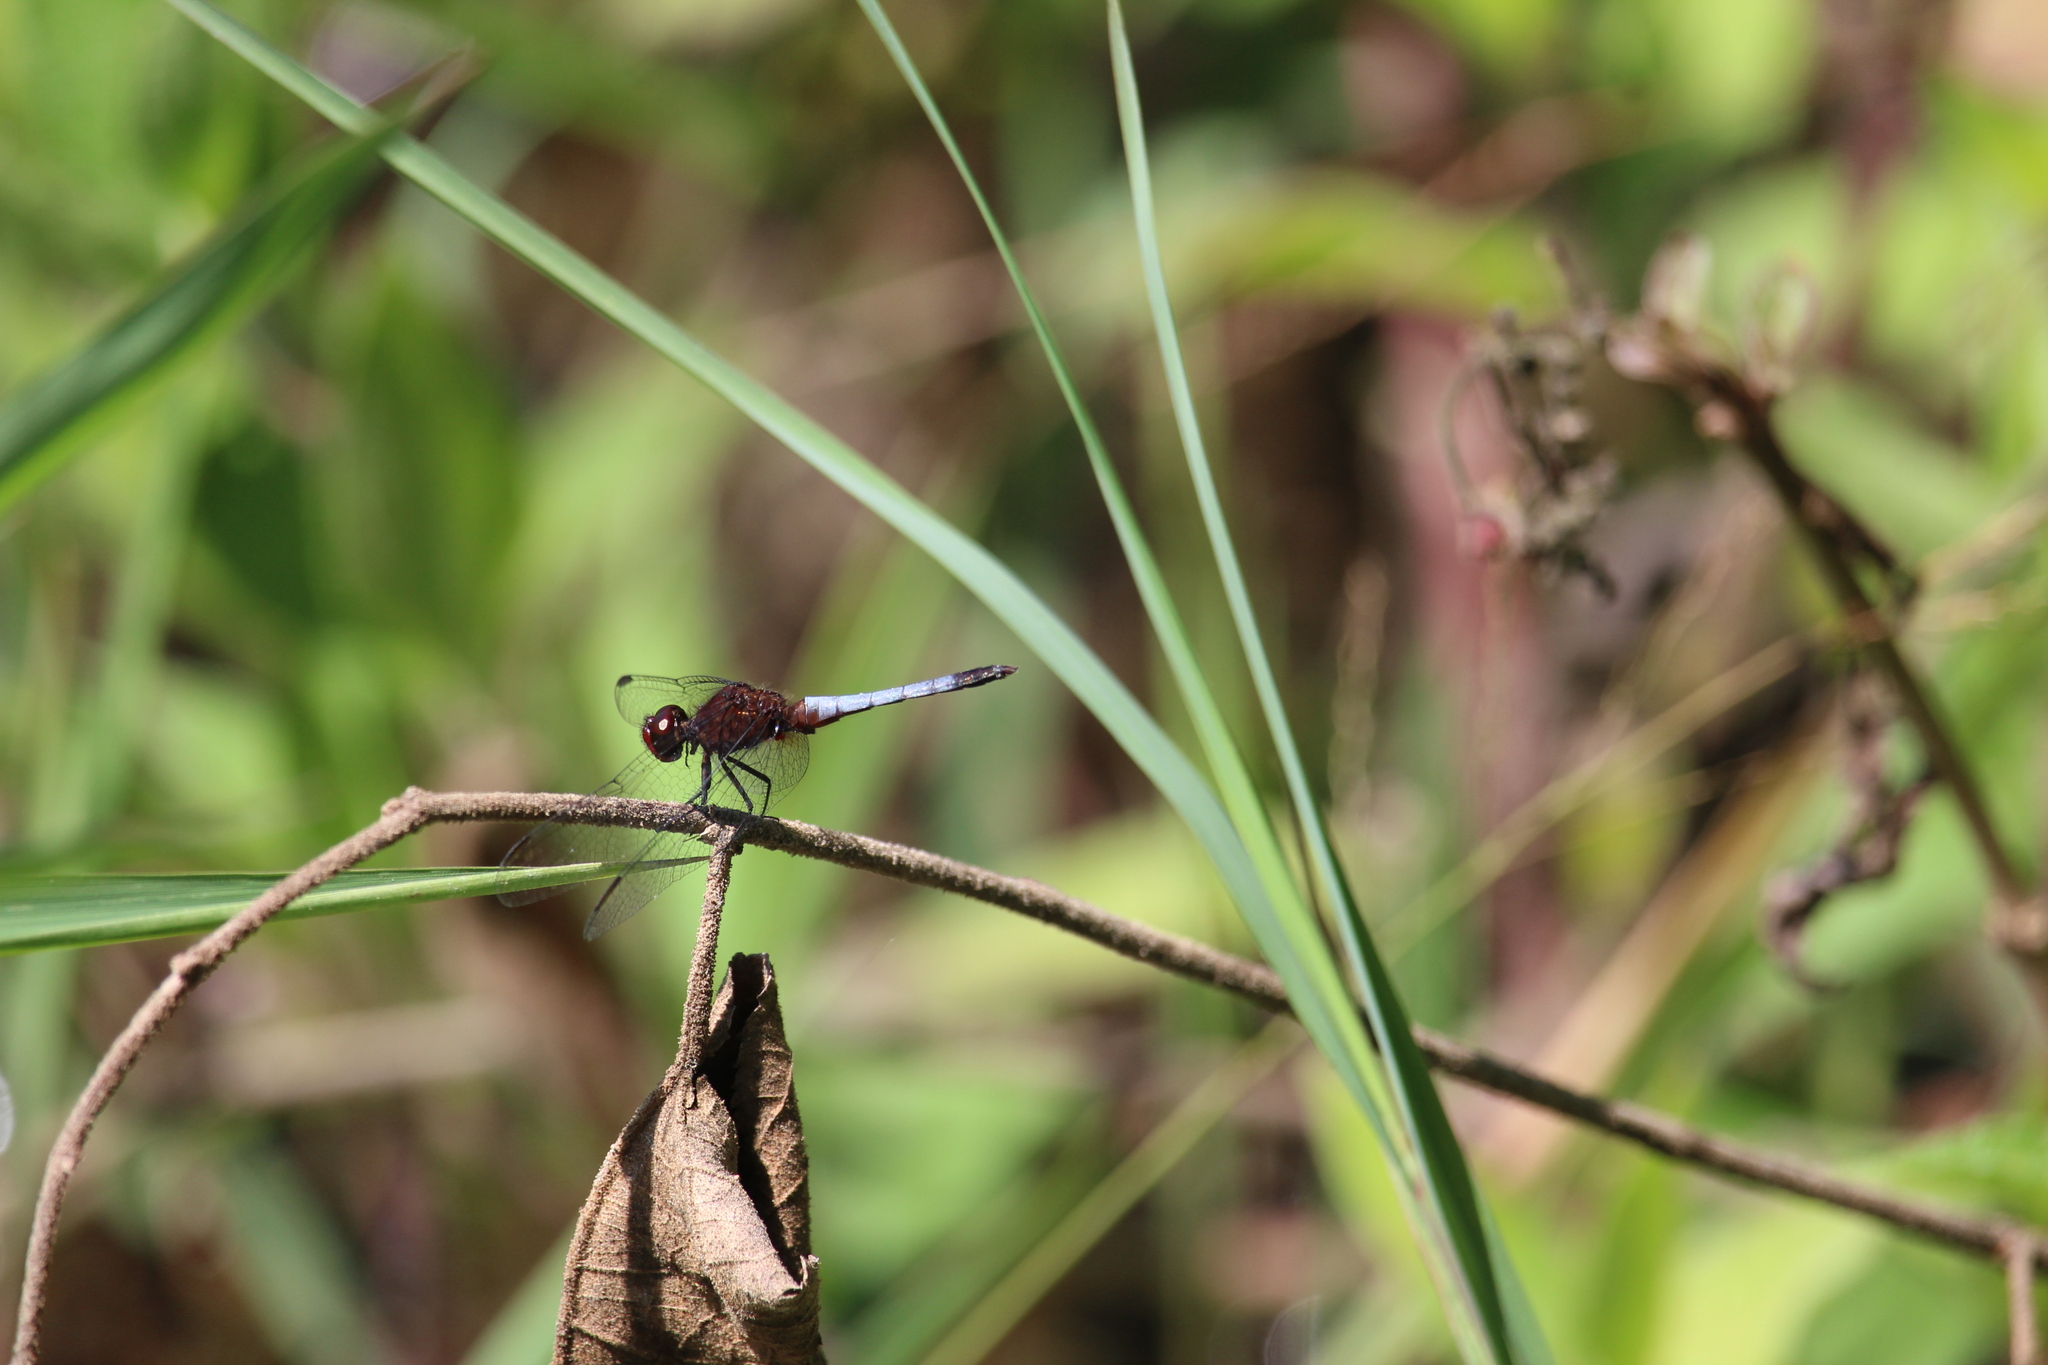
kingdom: Animalia
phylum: Arthropoda
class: Insecta
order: Odonata
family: Libellulidae
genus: Erythrodiplax
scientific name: Erythrodiplax fusca
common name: Red-faced dragonlet
